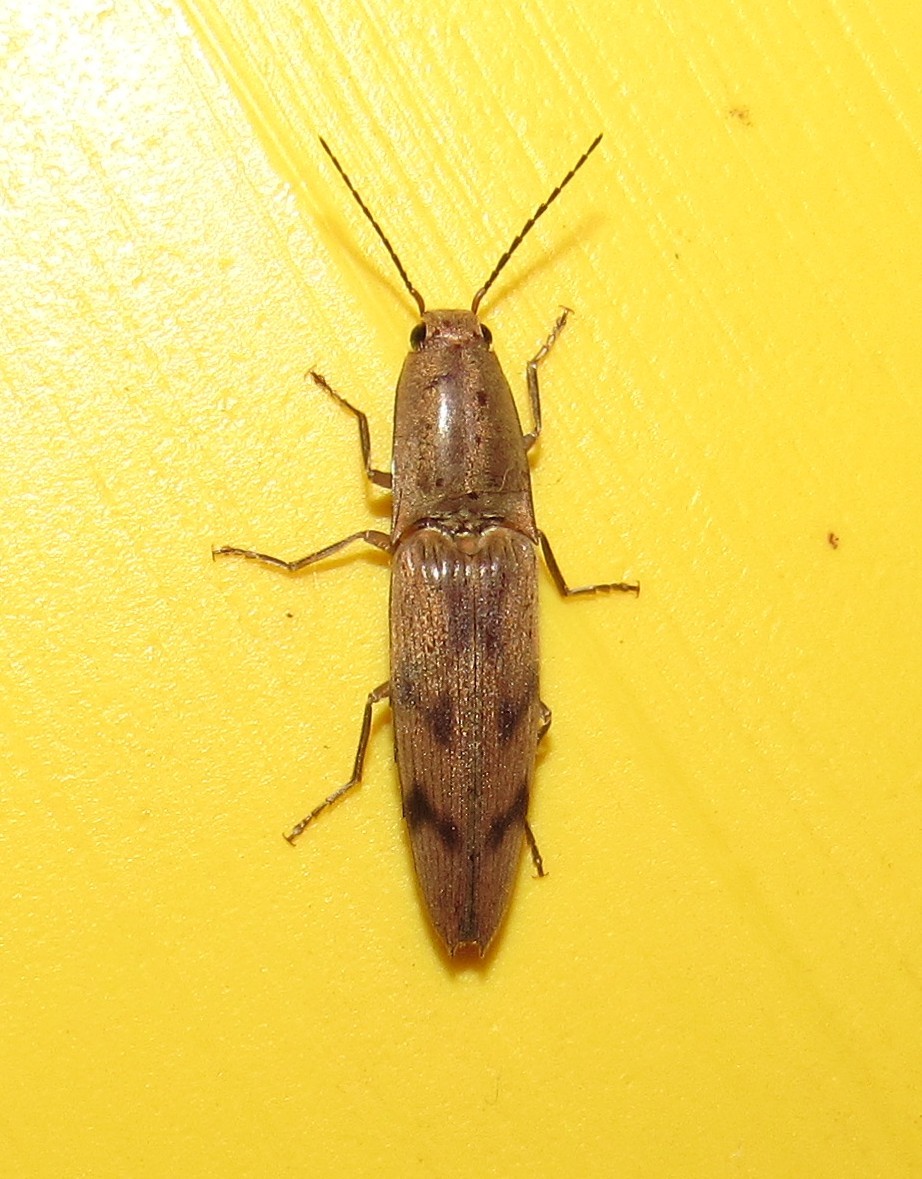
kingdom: Animalia
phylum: Arthropoda
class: Insecta
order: Coleoptera
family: Elateridae
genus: Monocrepidius
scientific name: Monocrepidius
